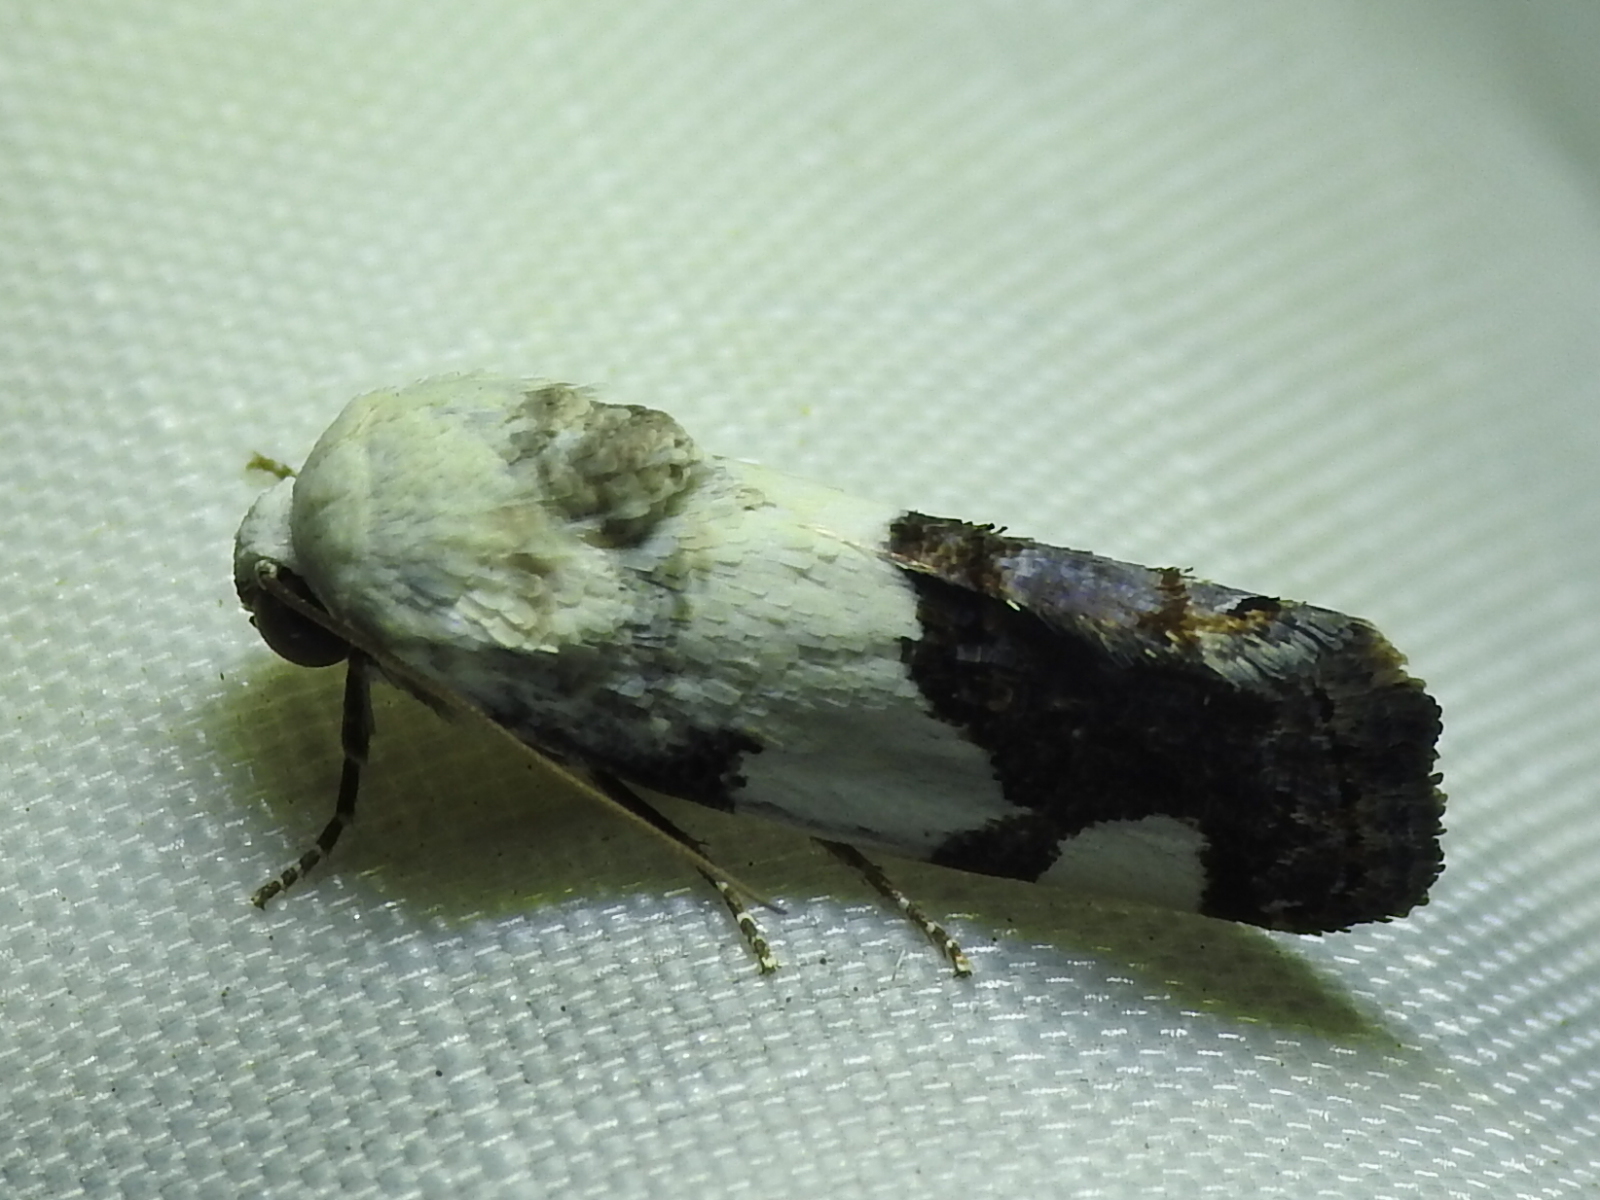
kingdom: Animalia
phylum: Arthropoda
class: Insecta
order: Lepidoptera
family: Noctuidae
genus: Acontia
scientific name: Acontia quadriplaga
